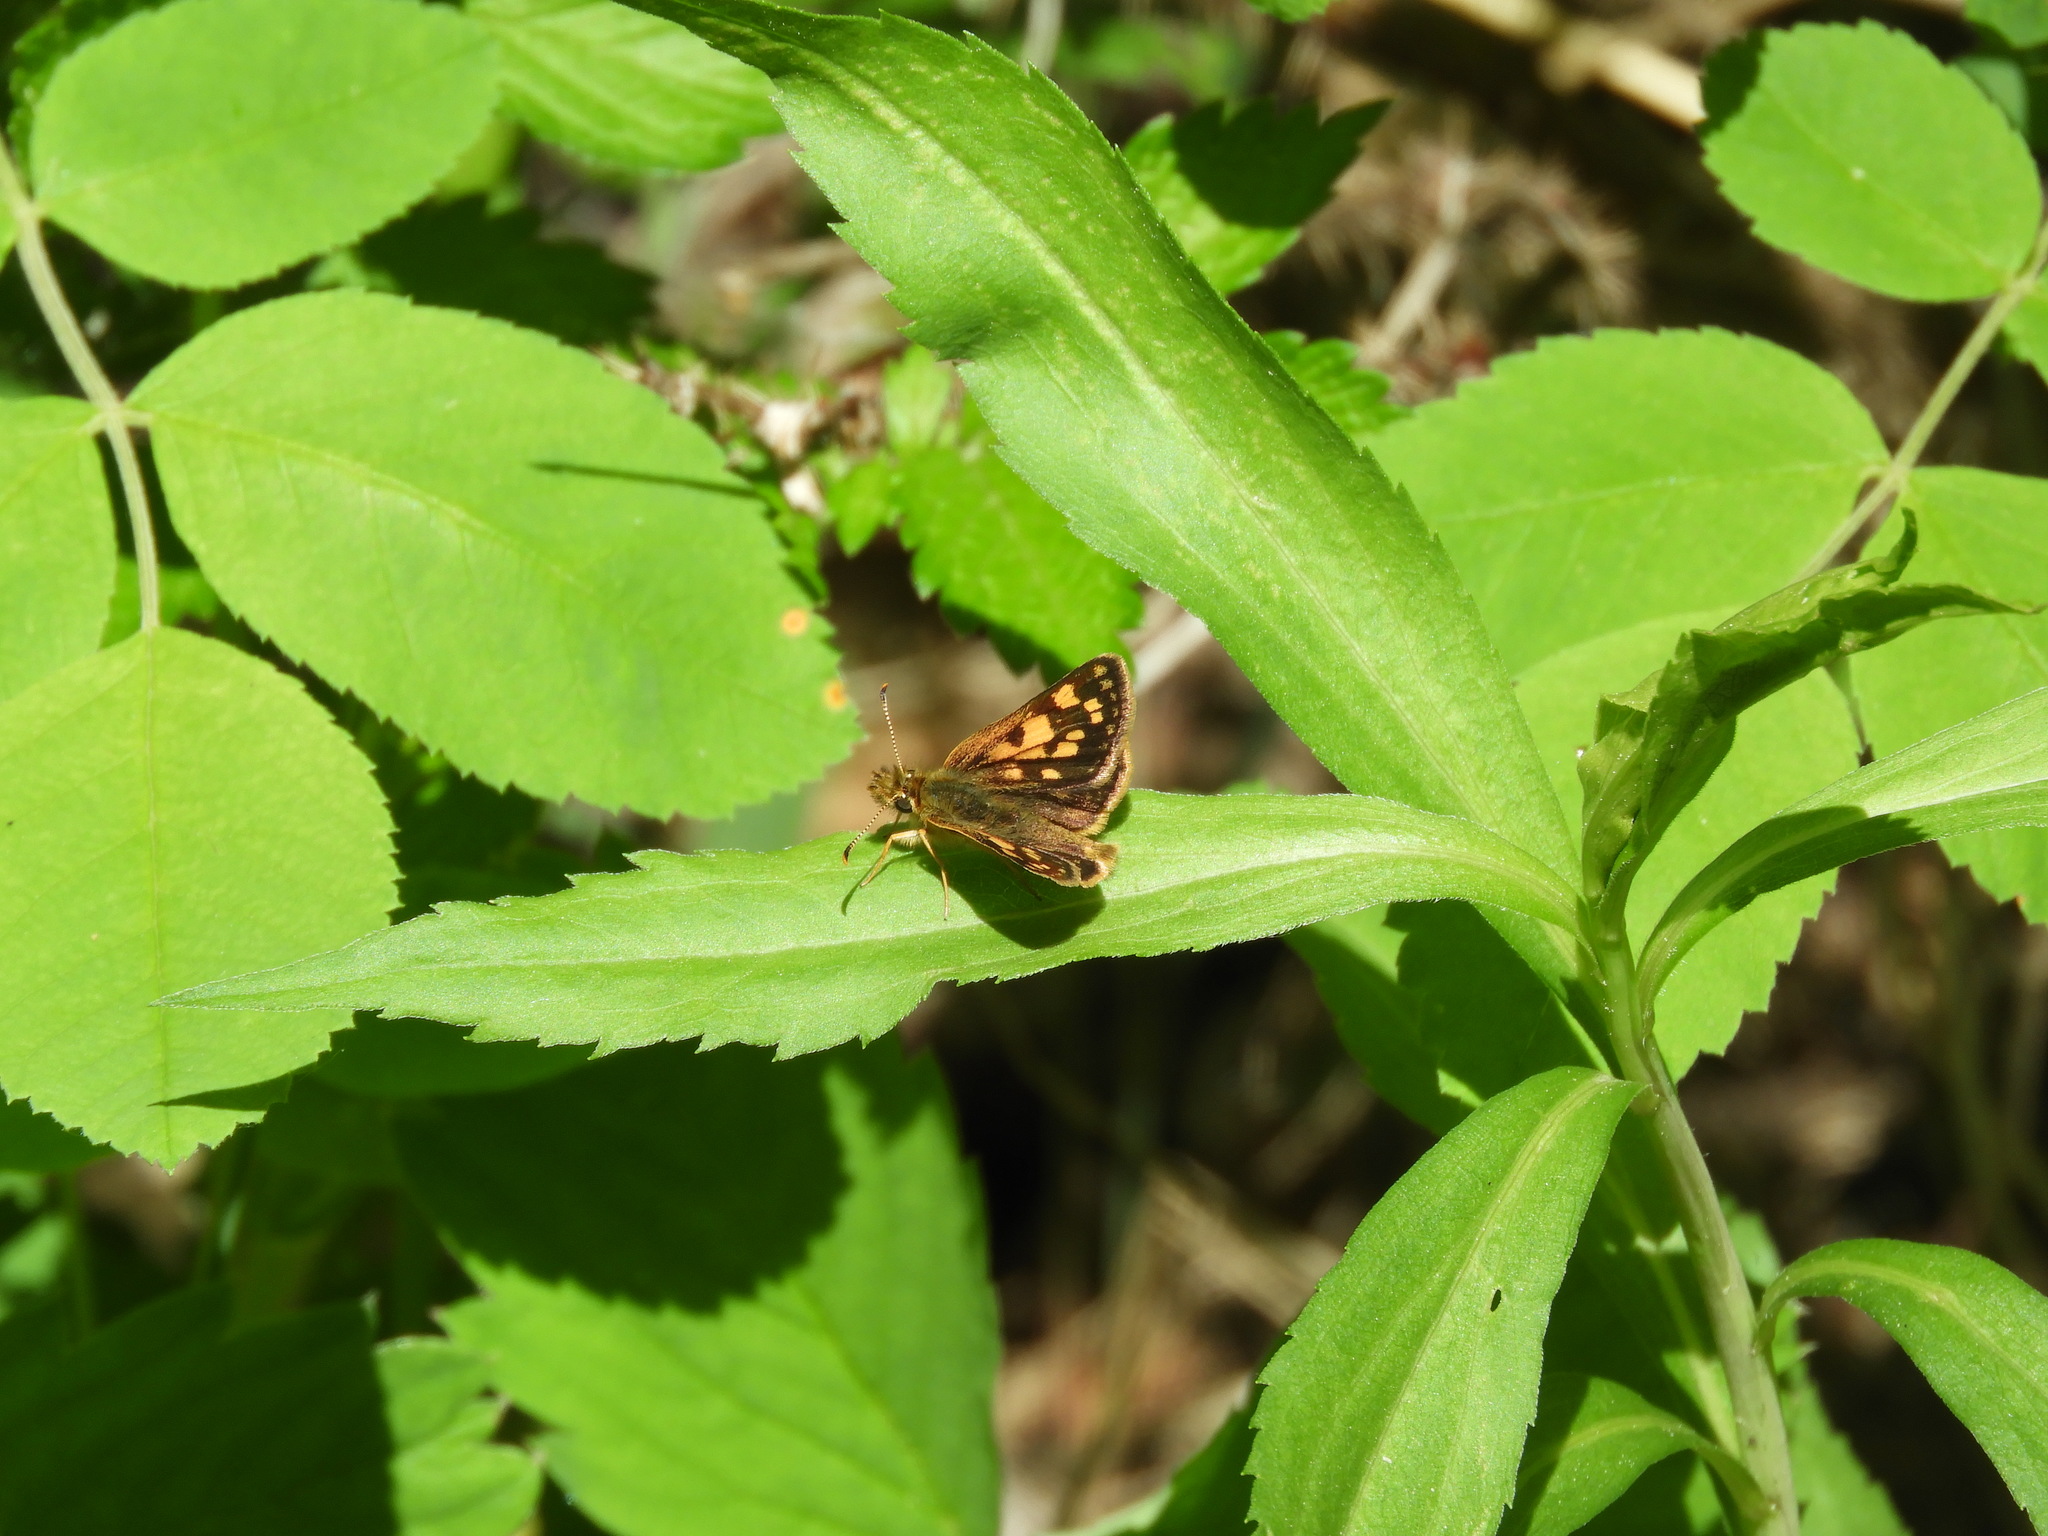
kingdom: Animalia
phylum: Arthropoda
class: Insecta
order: Lepidoptera
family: Hesperiidae
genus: Carterocephalus
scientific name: Carterocephalus mandan
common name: Arctic skipperling
